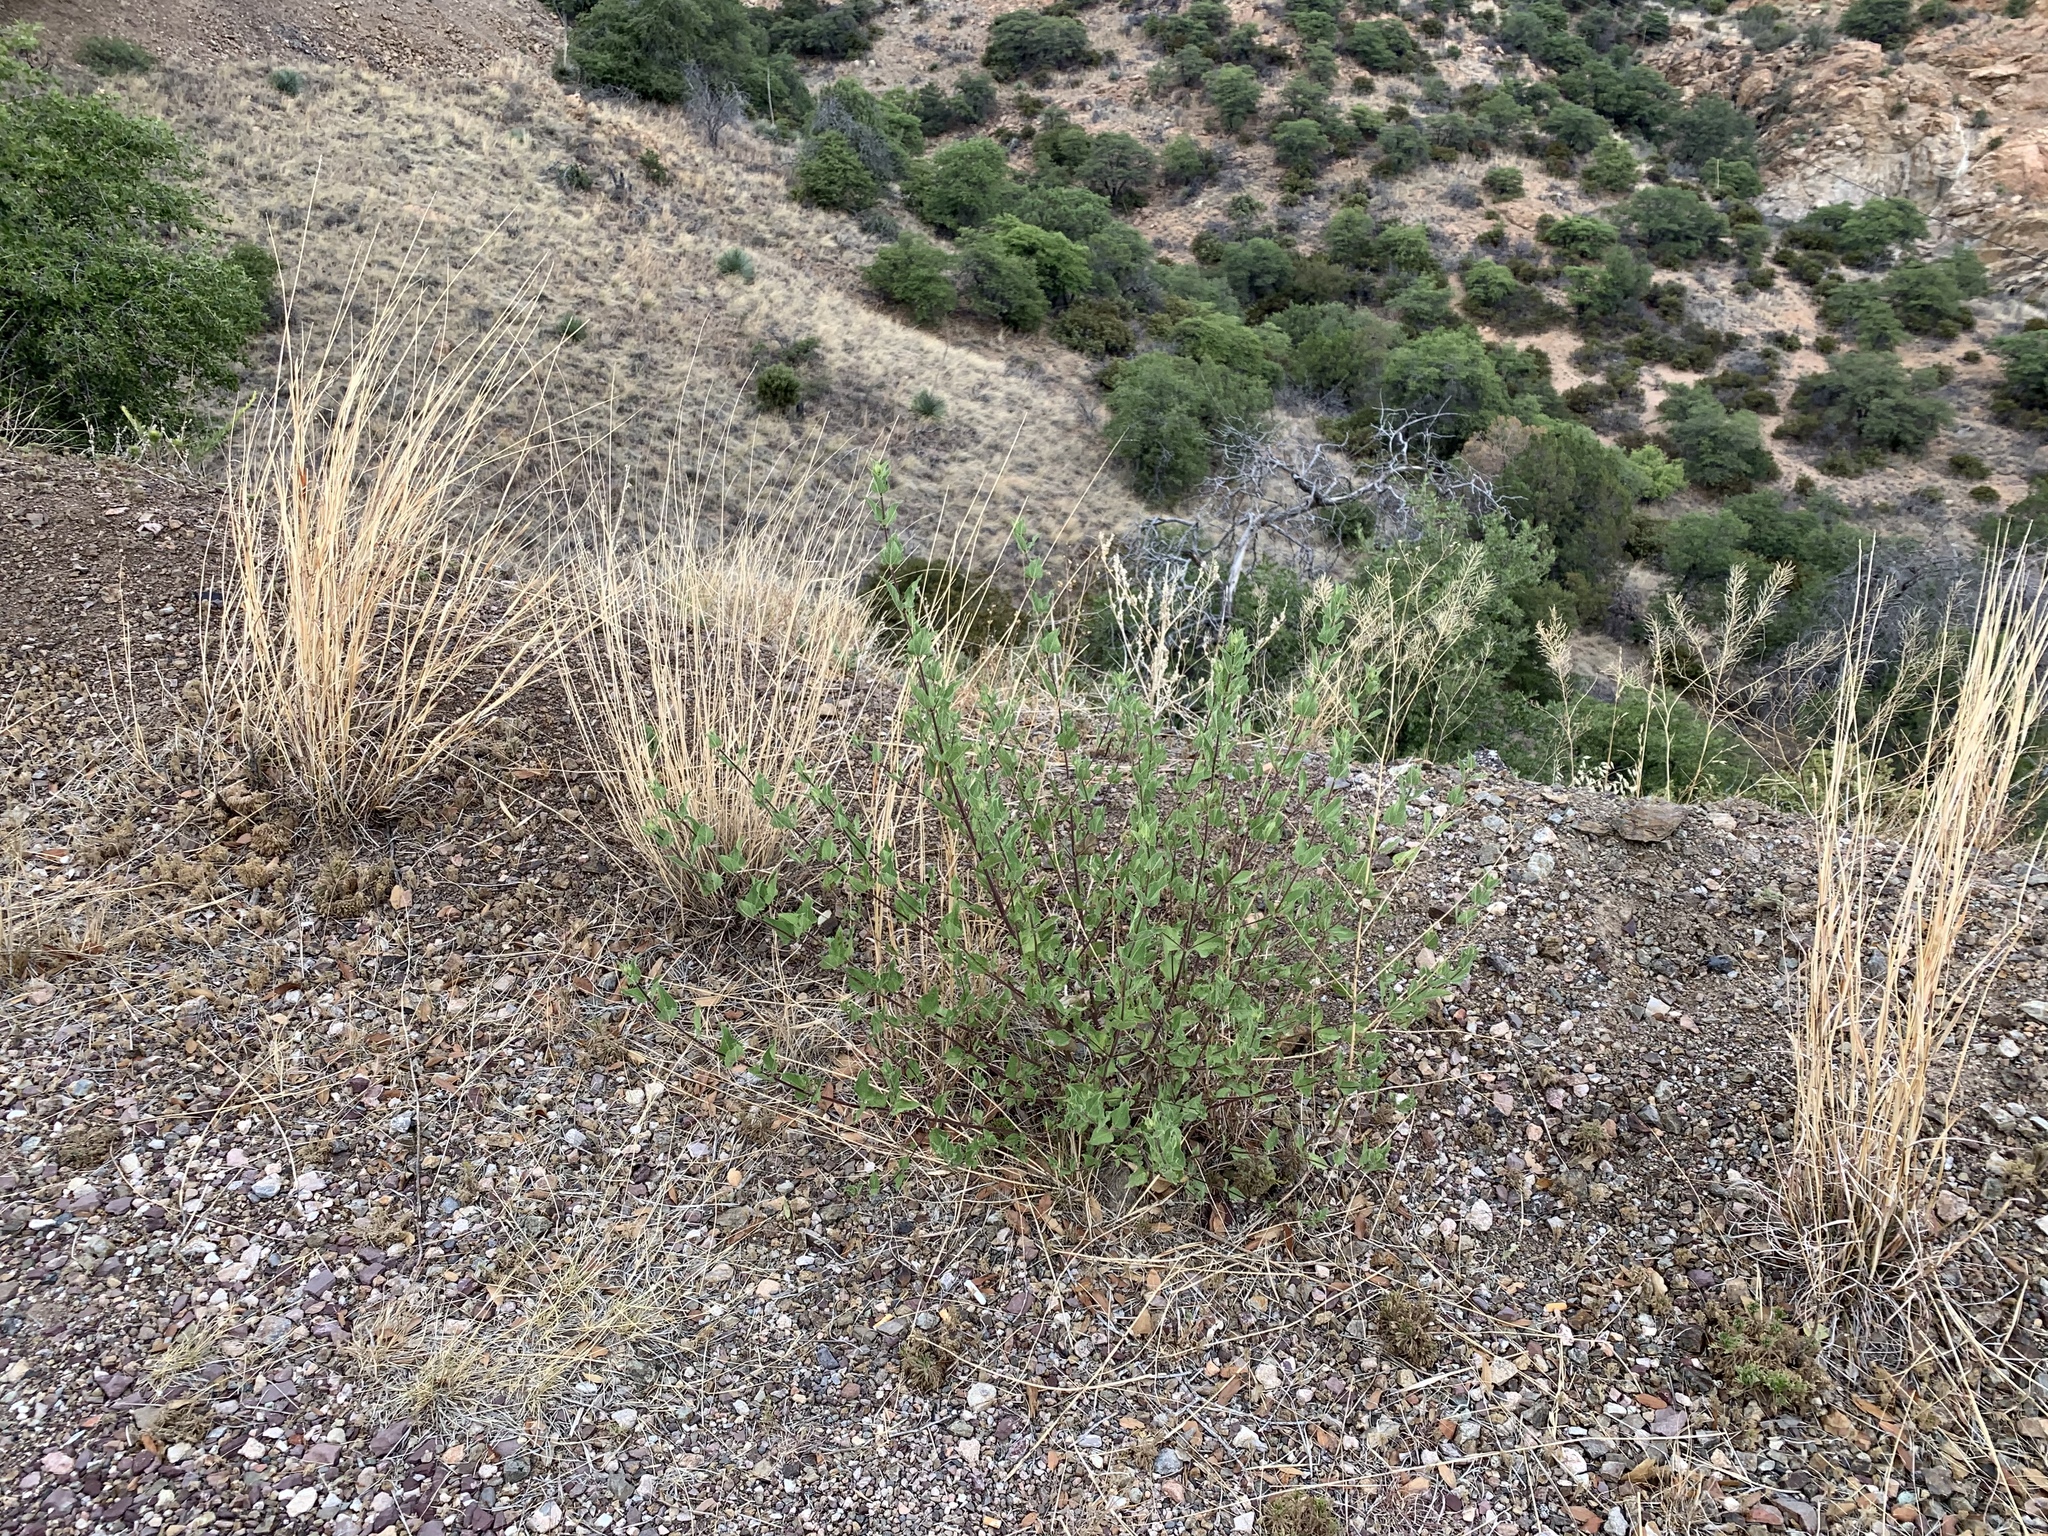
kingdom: Plantae
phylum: Tracheophyta
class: Magnoliopsida
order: Myrtales
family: Onagraceae
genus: Oenothera
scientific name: Oenothera curtiflora
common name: Velvetweed
